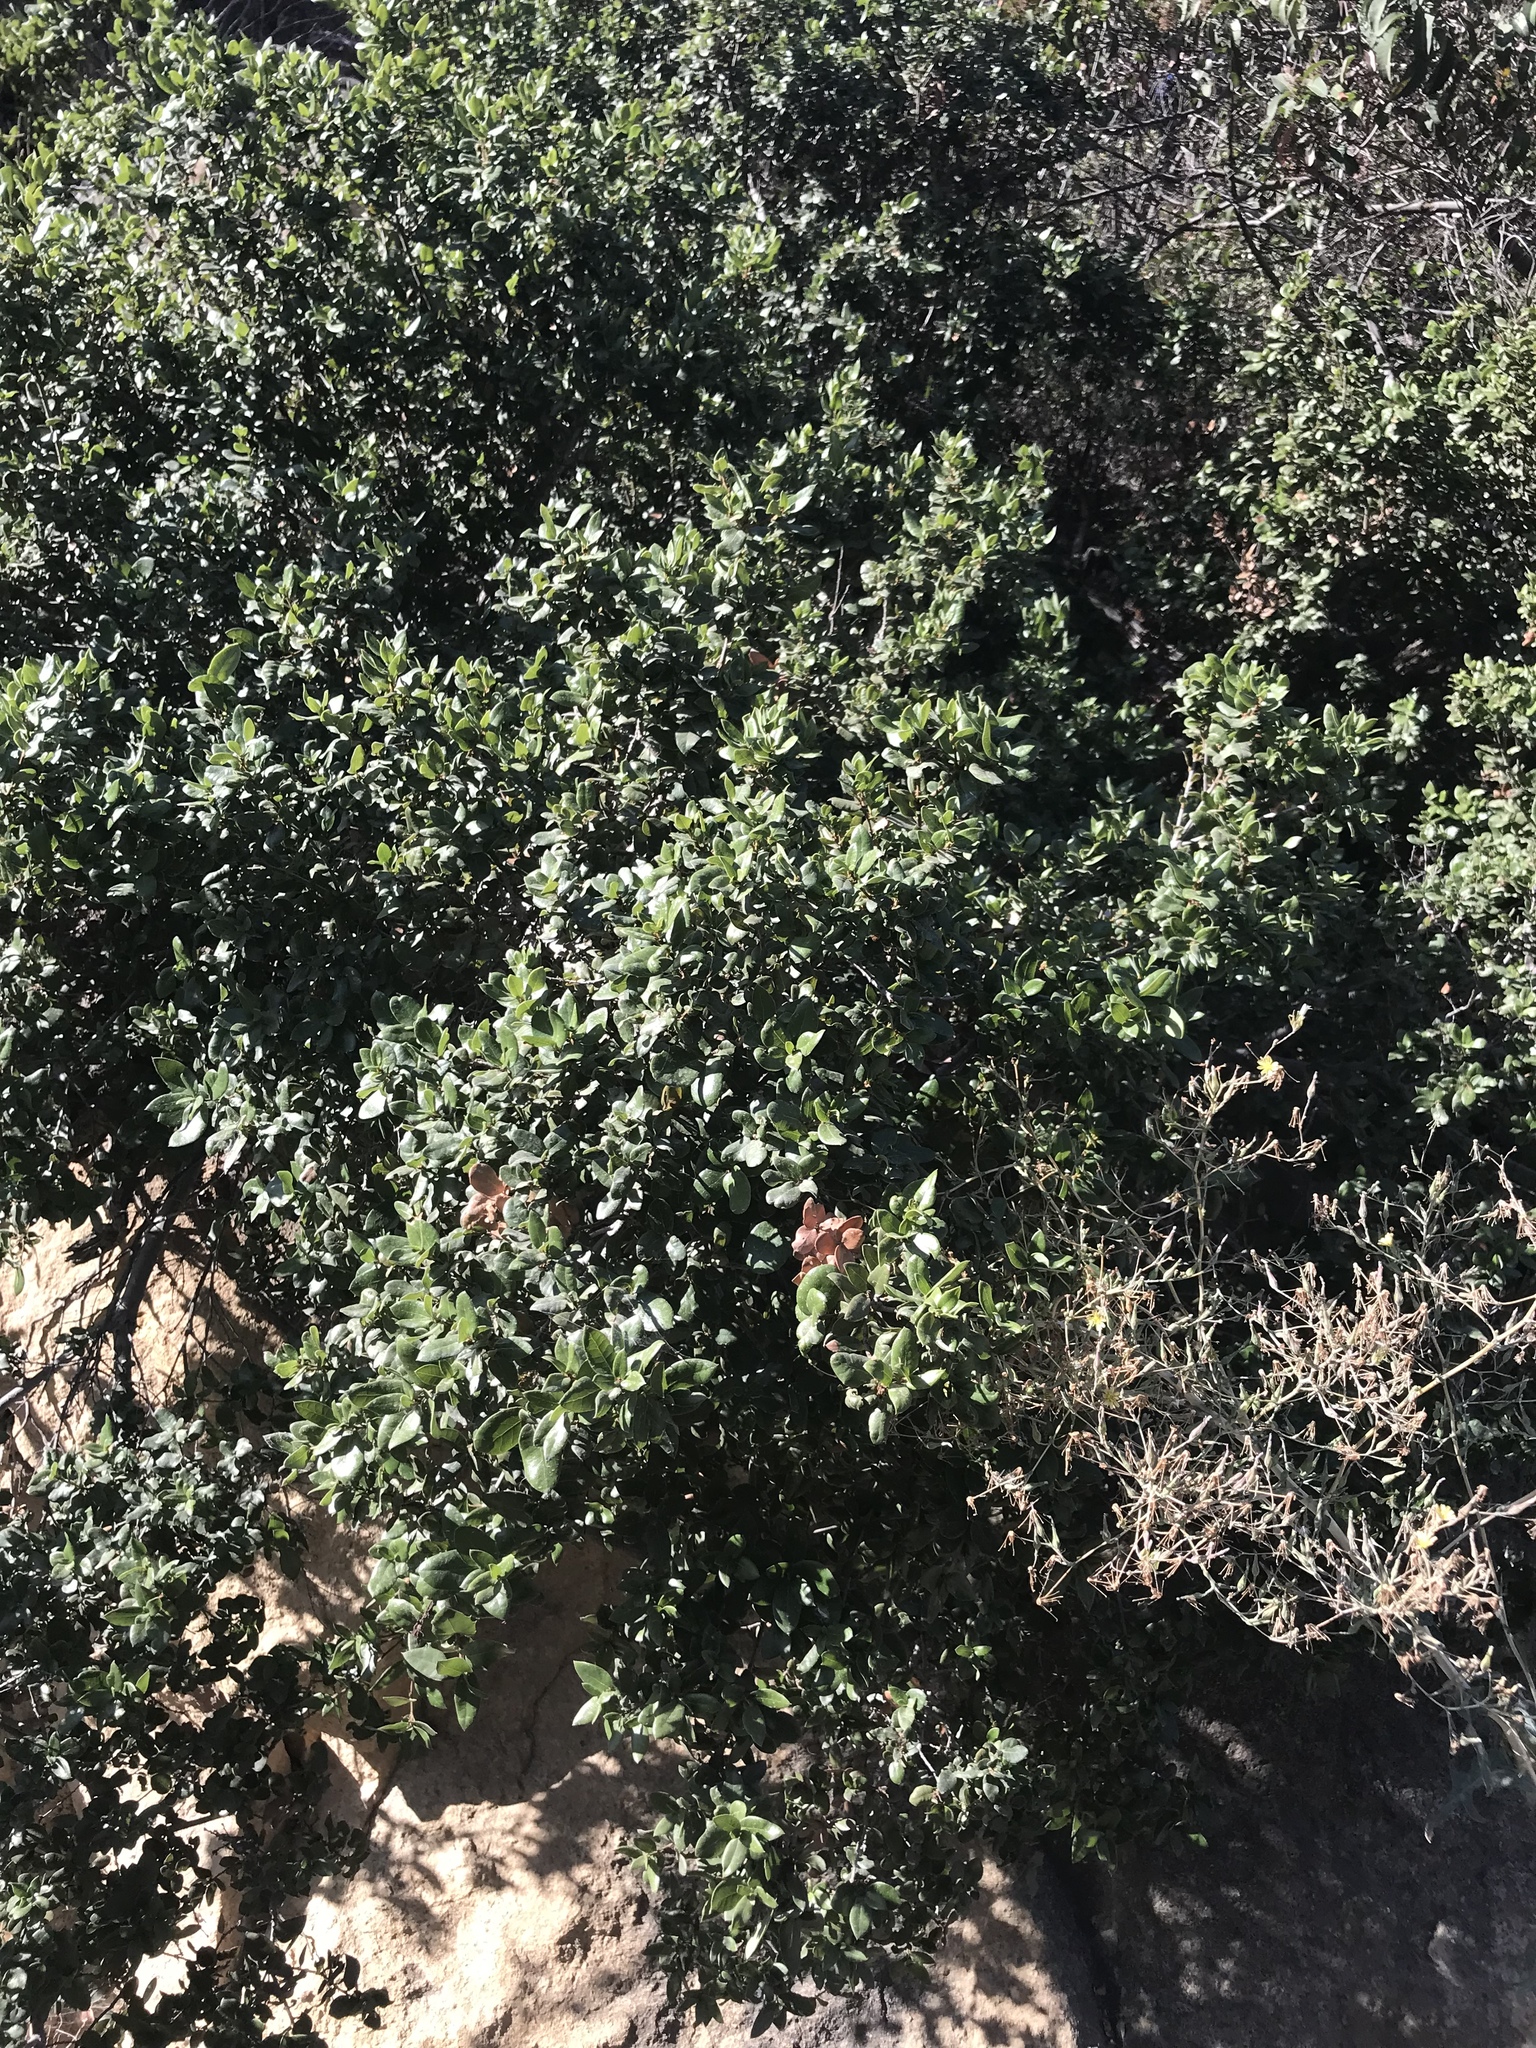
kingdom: Plantae
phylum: Tracheophyta
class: Magnoliopsida
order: Fagales
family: Fagaceae
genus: Quercus
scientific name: Quercus cedrosensis
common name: Cedros island oak
